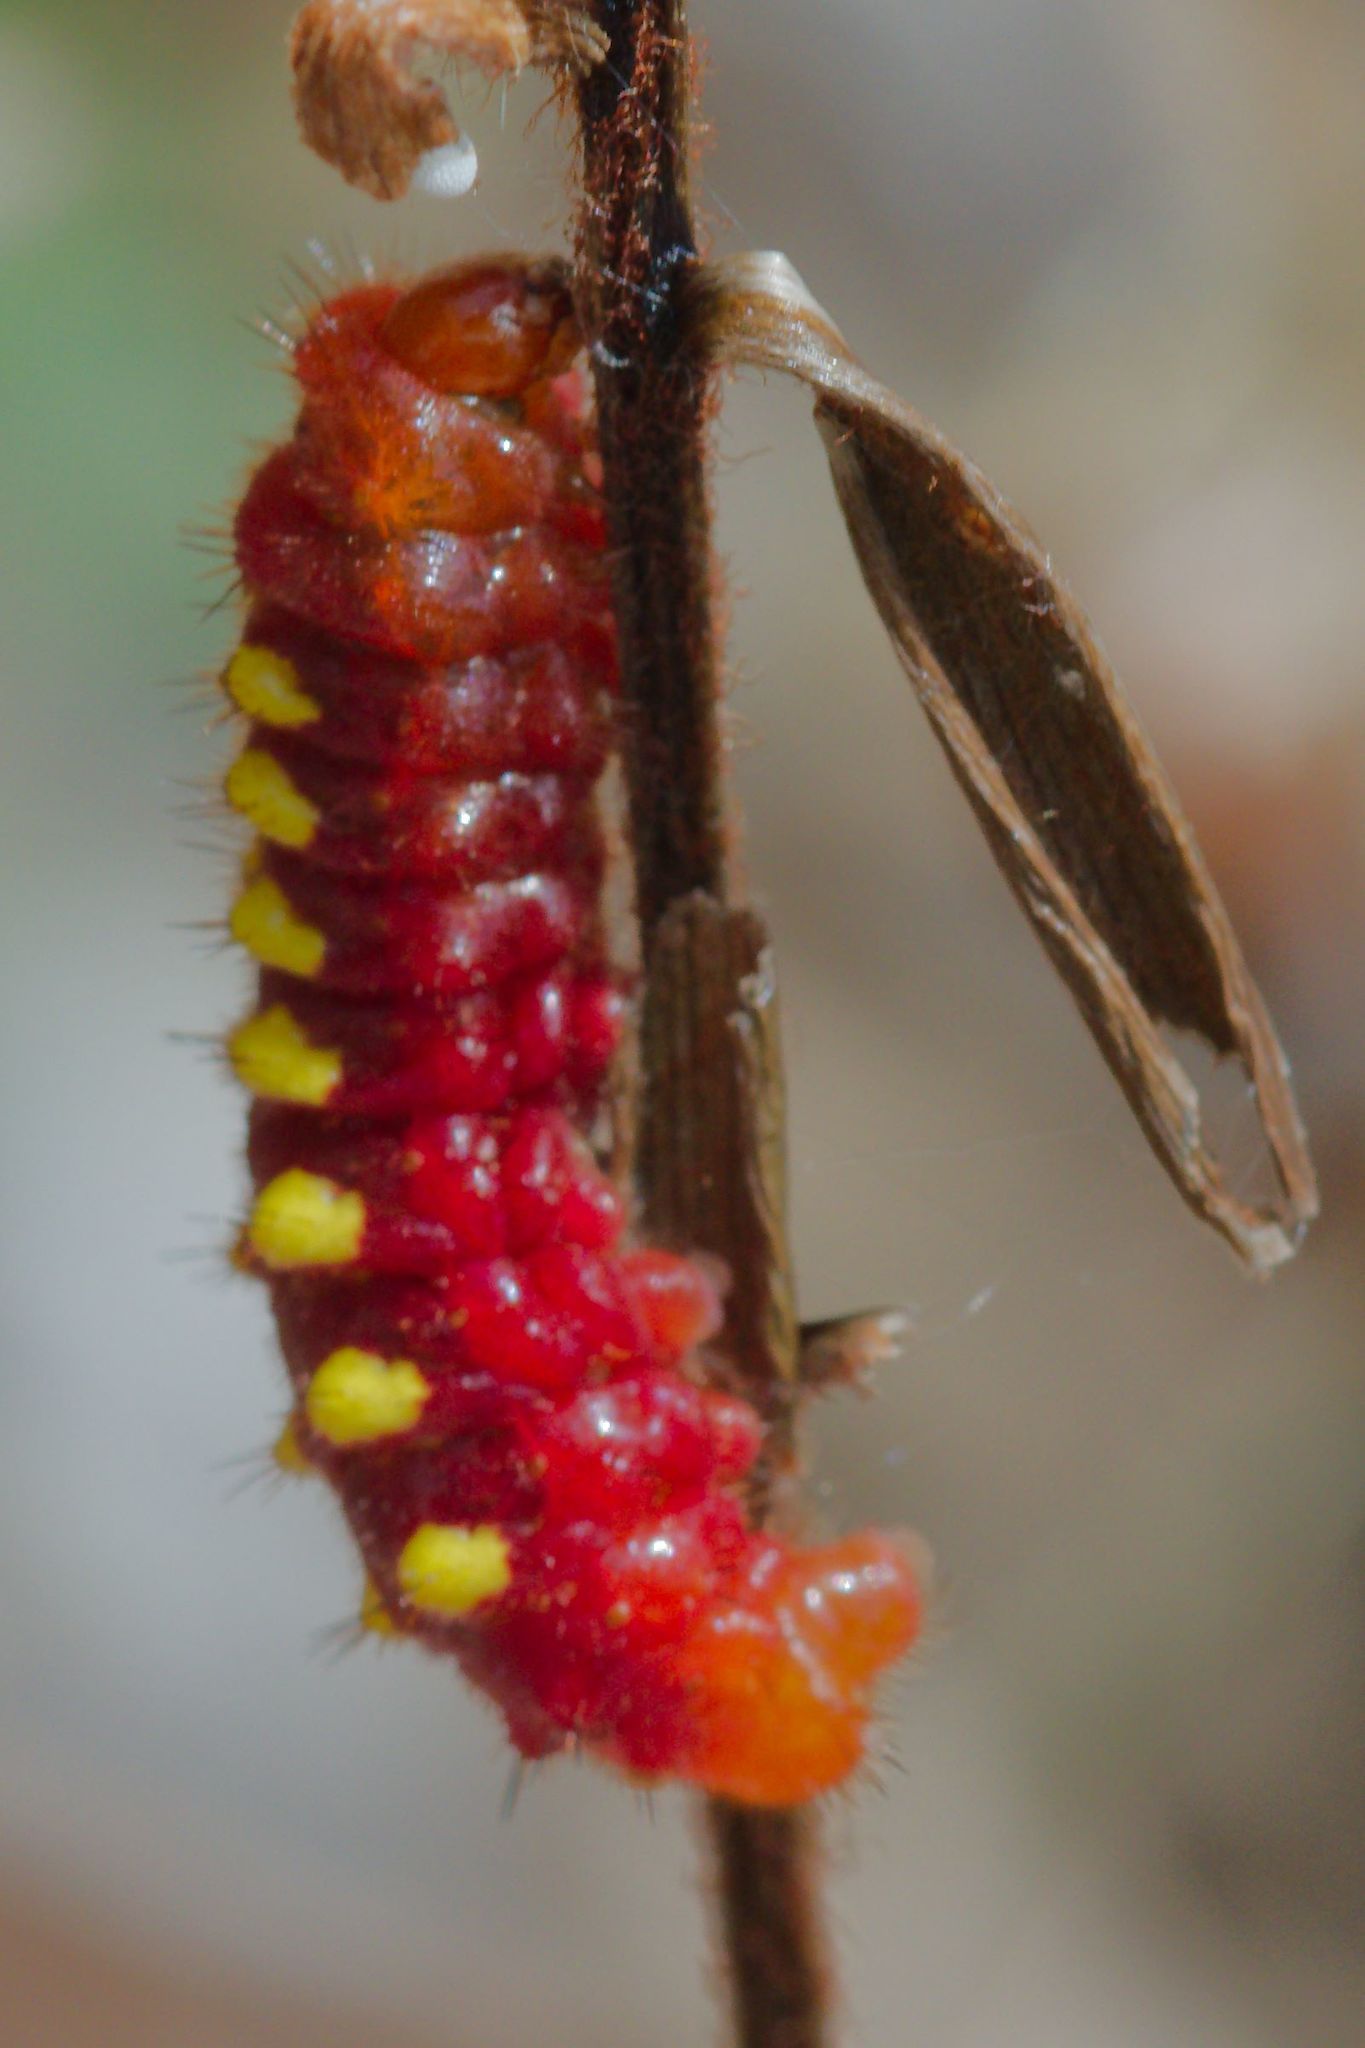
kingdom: Animalia
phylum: Arthropoda
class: Insecta
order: Lepidoptera
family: Lycaenidae
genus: Eumaeus
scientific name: Eumaeus atala
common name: Atala
